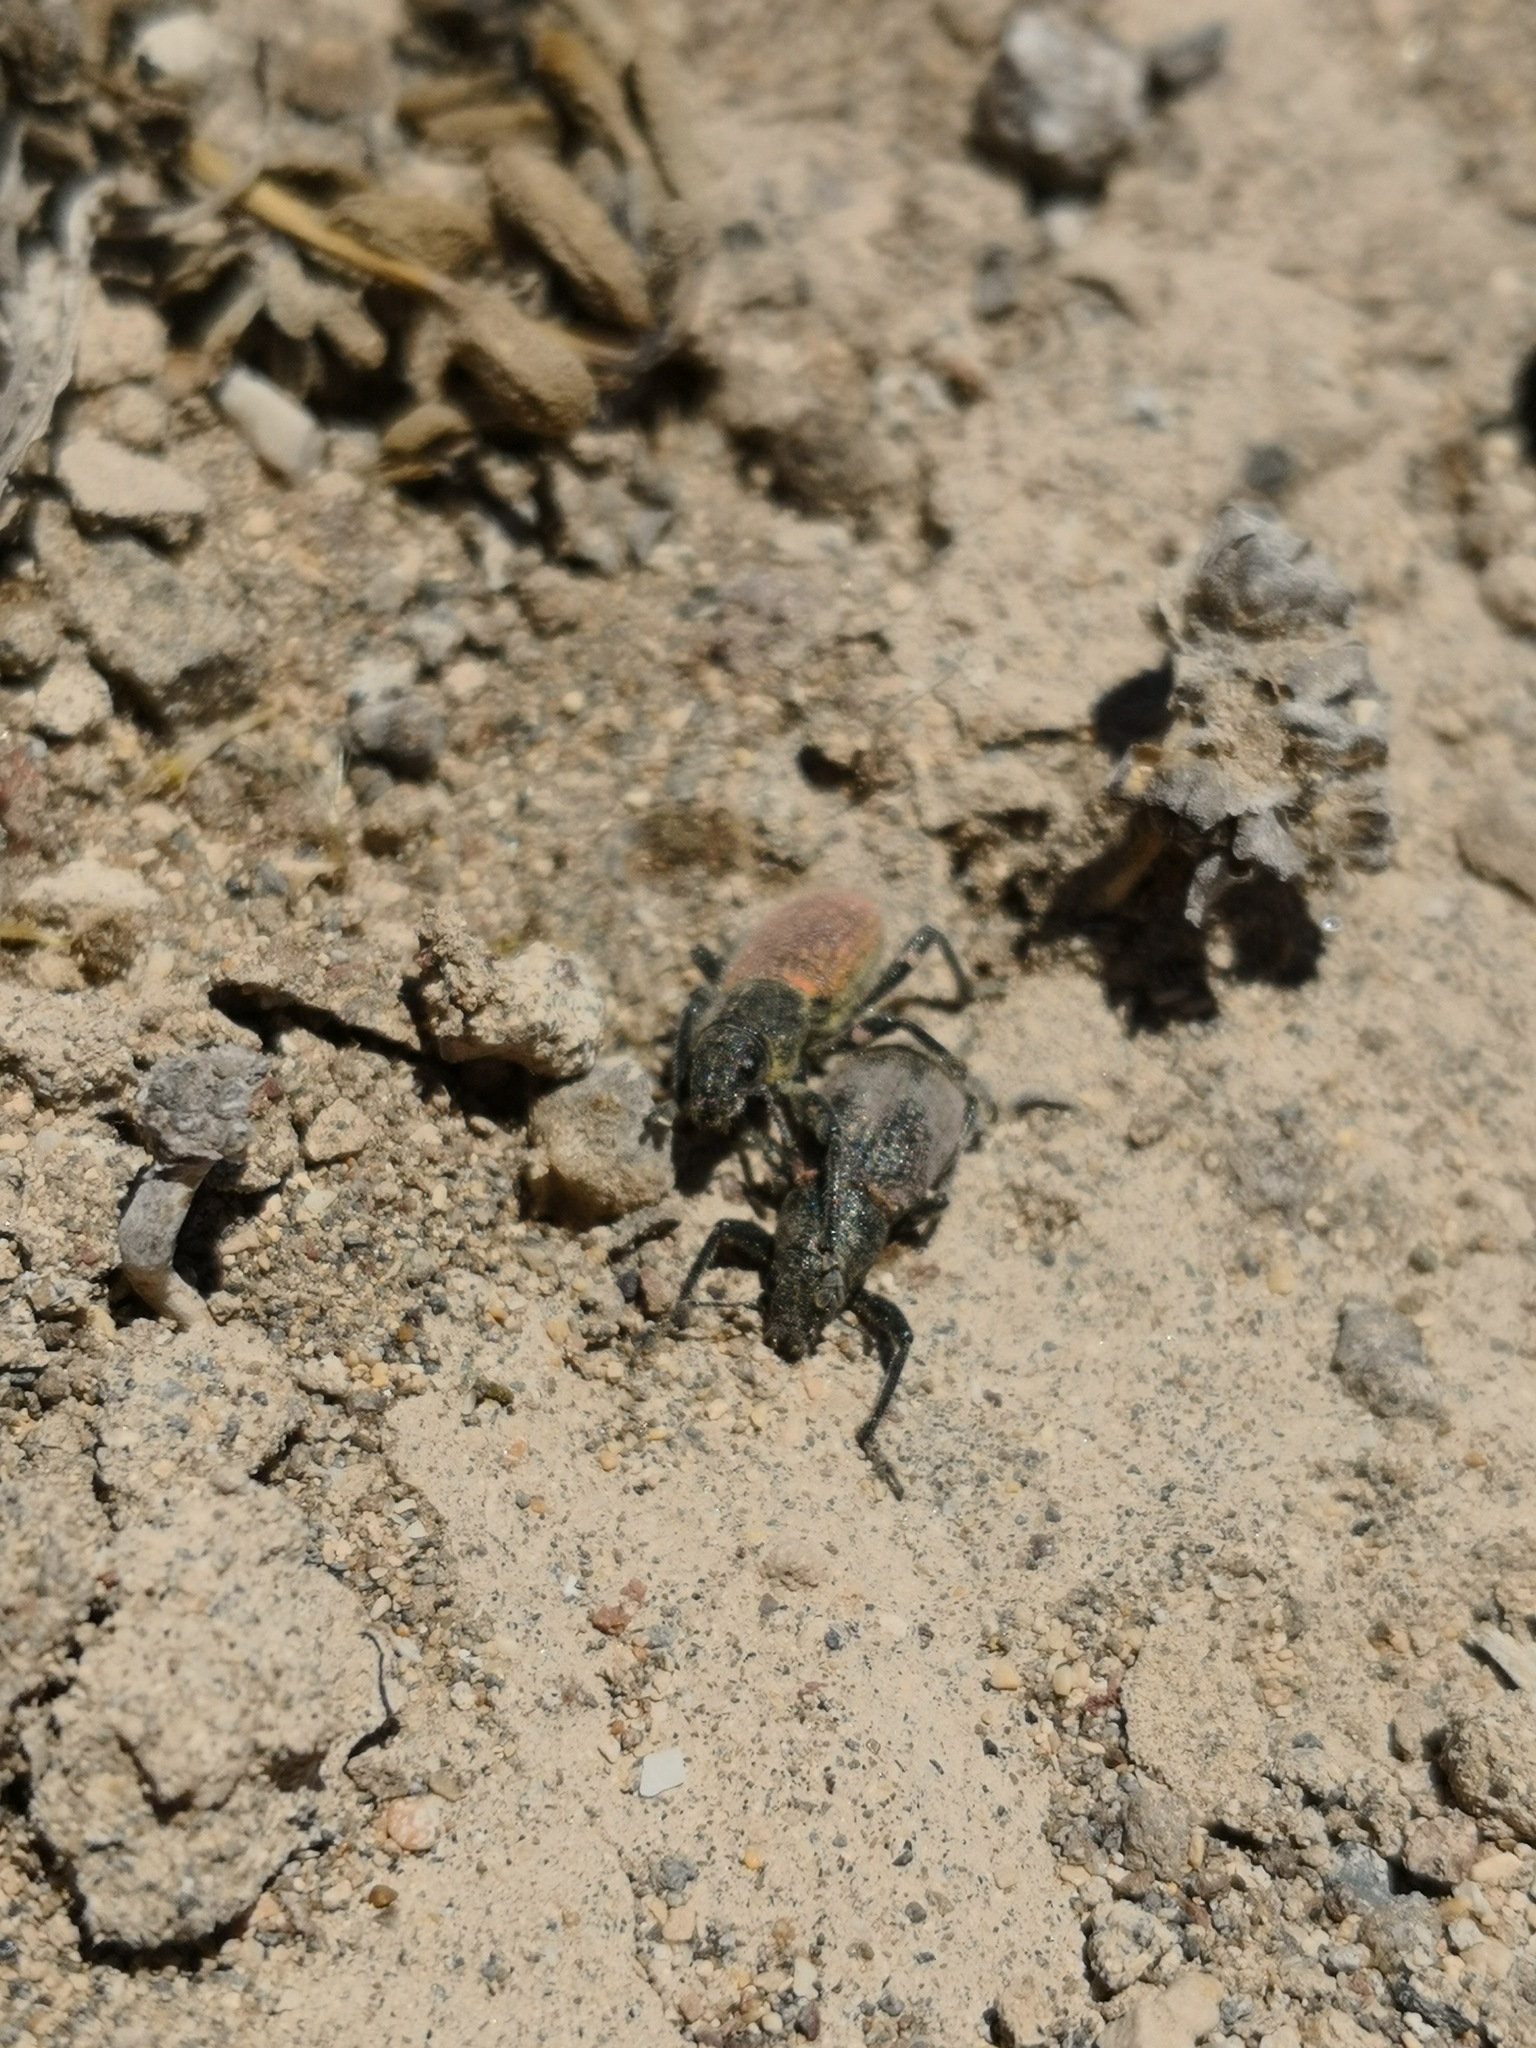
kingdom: Animalia
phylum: Arthropoda
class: Insecta
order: Coleoptera
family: Curculionidae
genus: Herpisticus
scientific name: Herpisticus subvestitus
